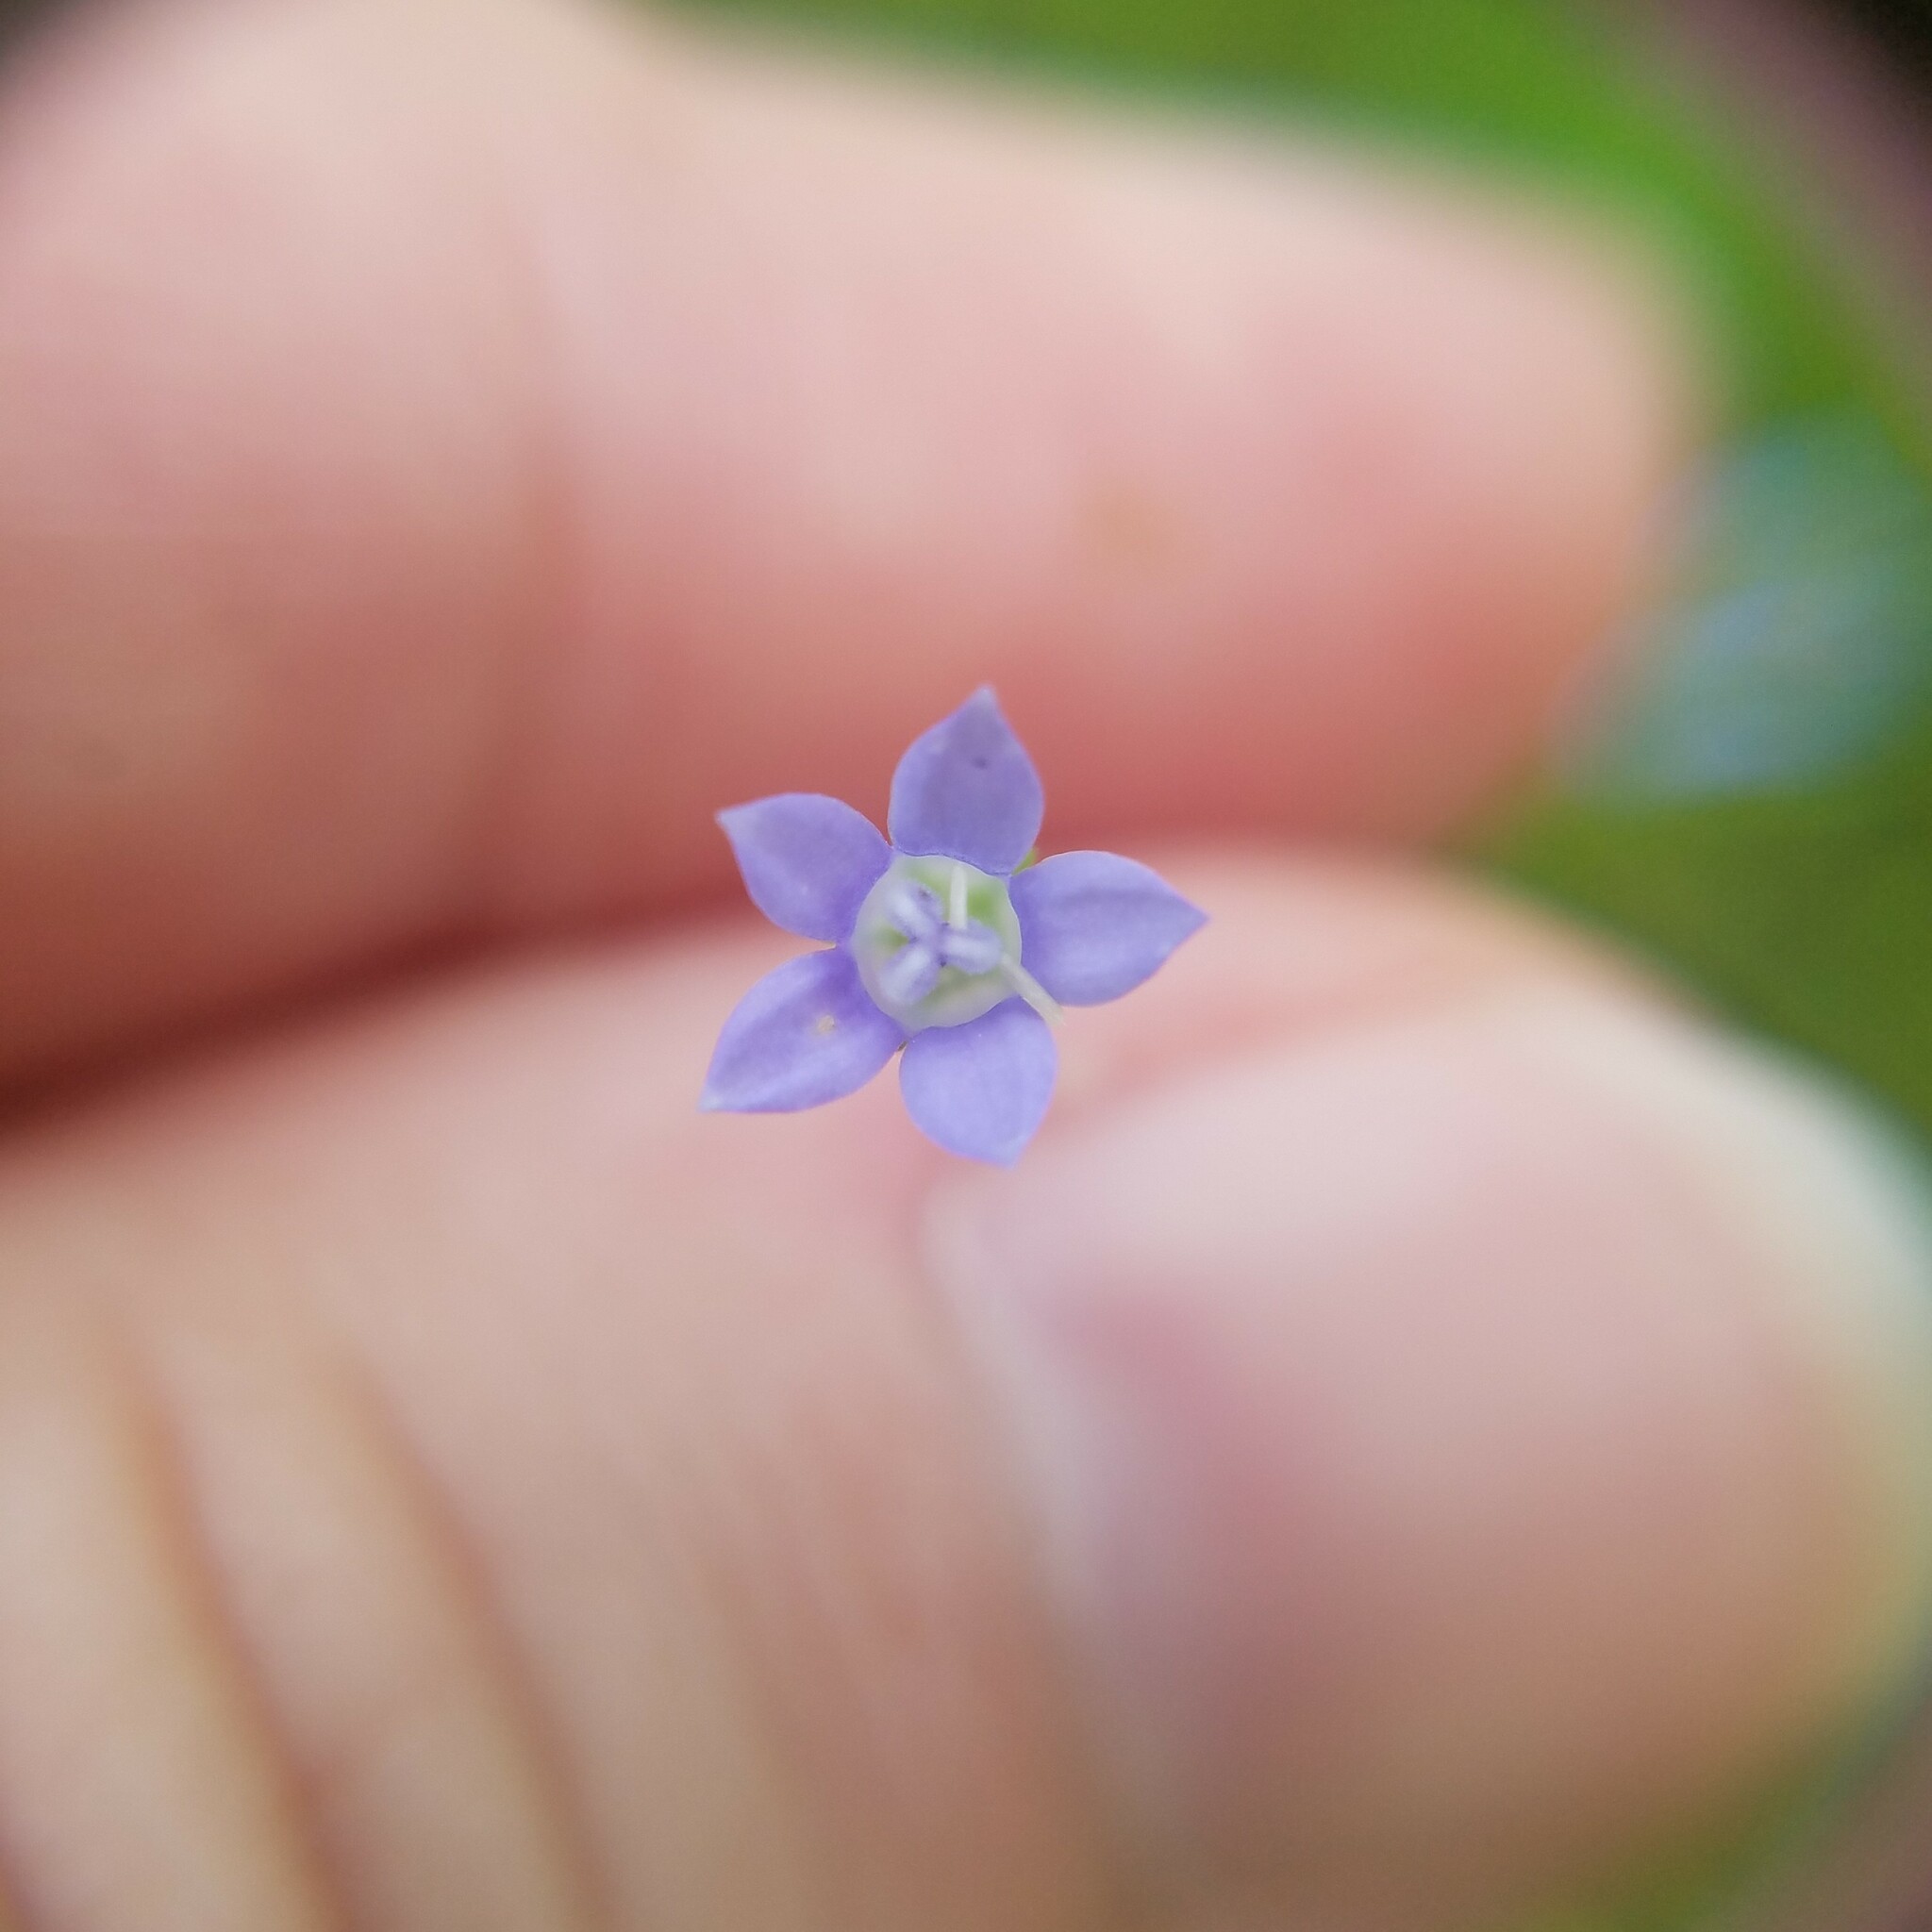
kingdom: Plantae
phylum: Tracheophyta
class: Magnoliopsida
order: Asterales
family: Campanulaceae
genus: Wahlenbergia
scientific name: Wahlenbergia marginata
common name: Southern rockbell
